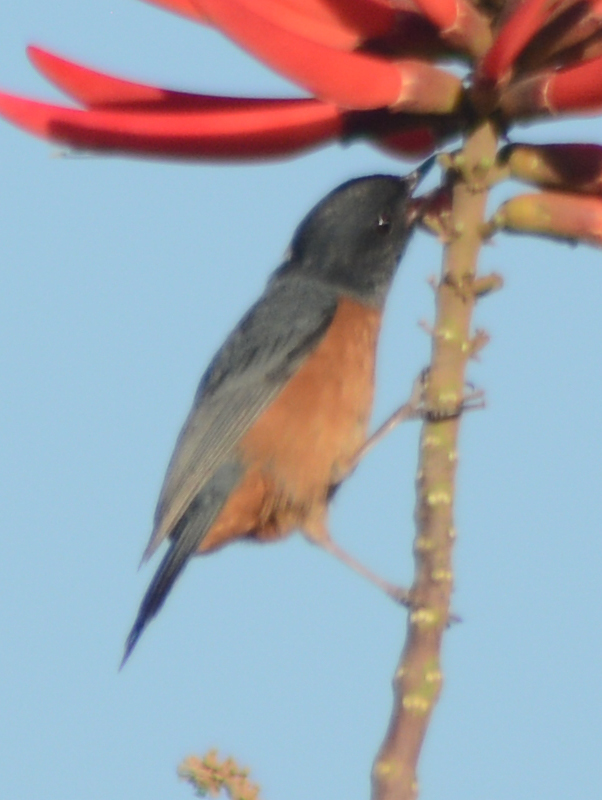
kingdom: Animalia
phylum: Chordata
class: Aves
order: Passeriformes
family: Thraupidae
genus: Diglossa
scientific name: Diglossa baritula
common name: Cinnamon-bellied flowerpiercer
